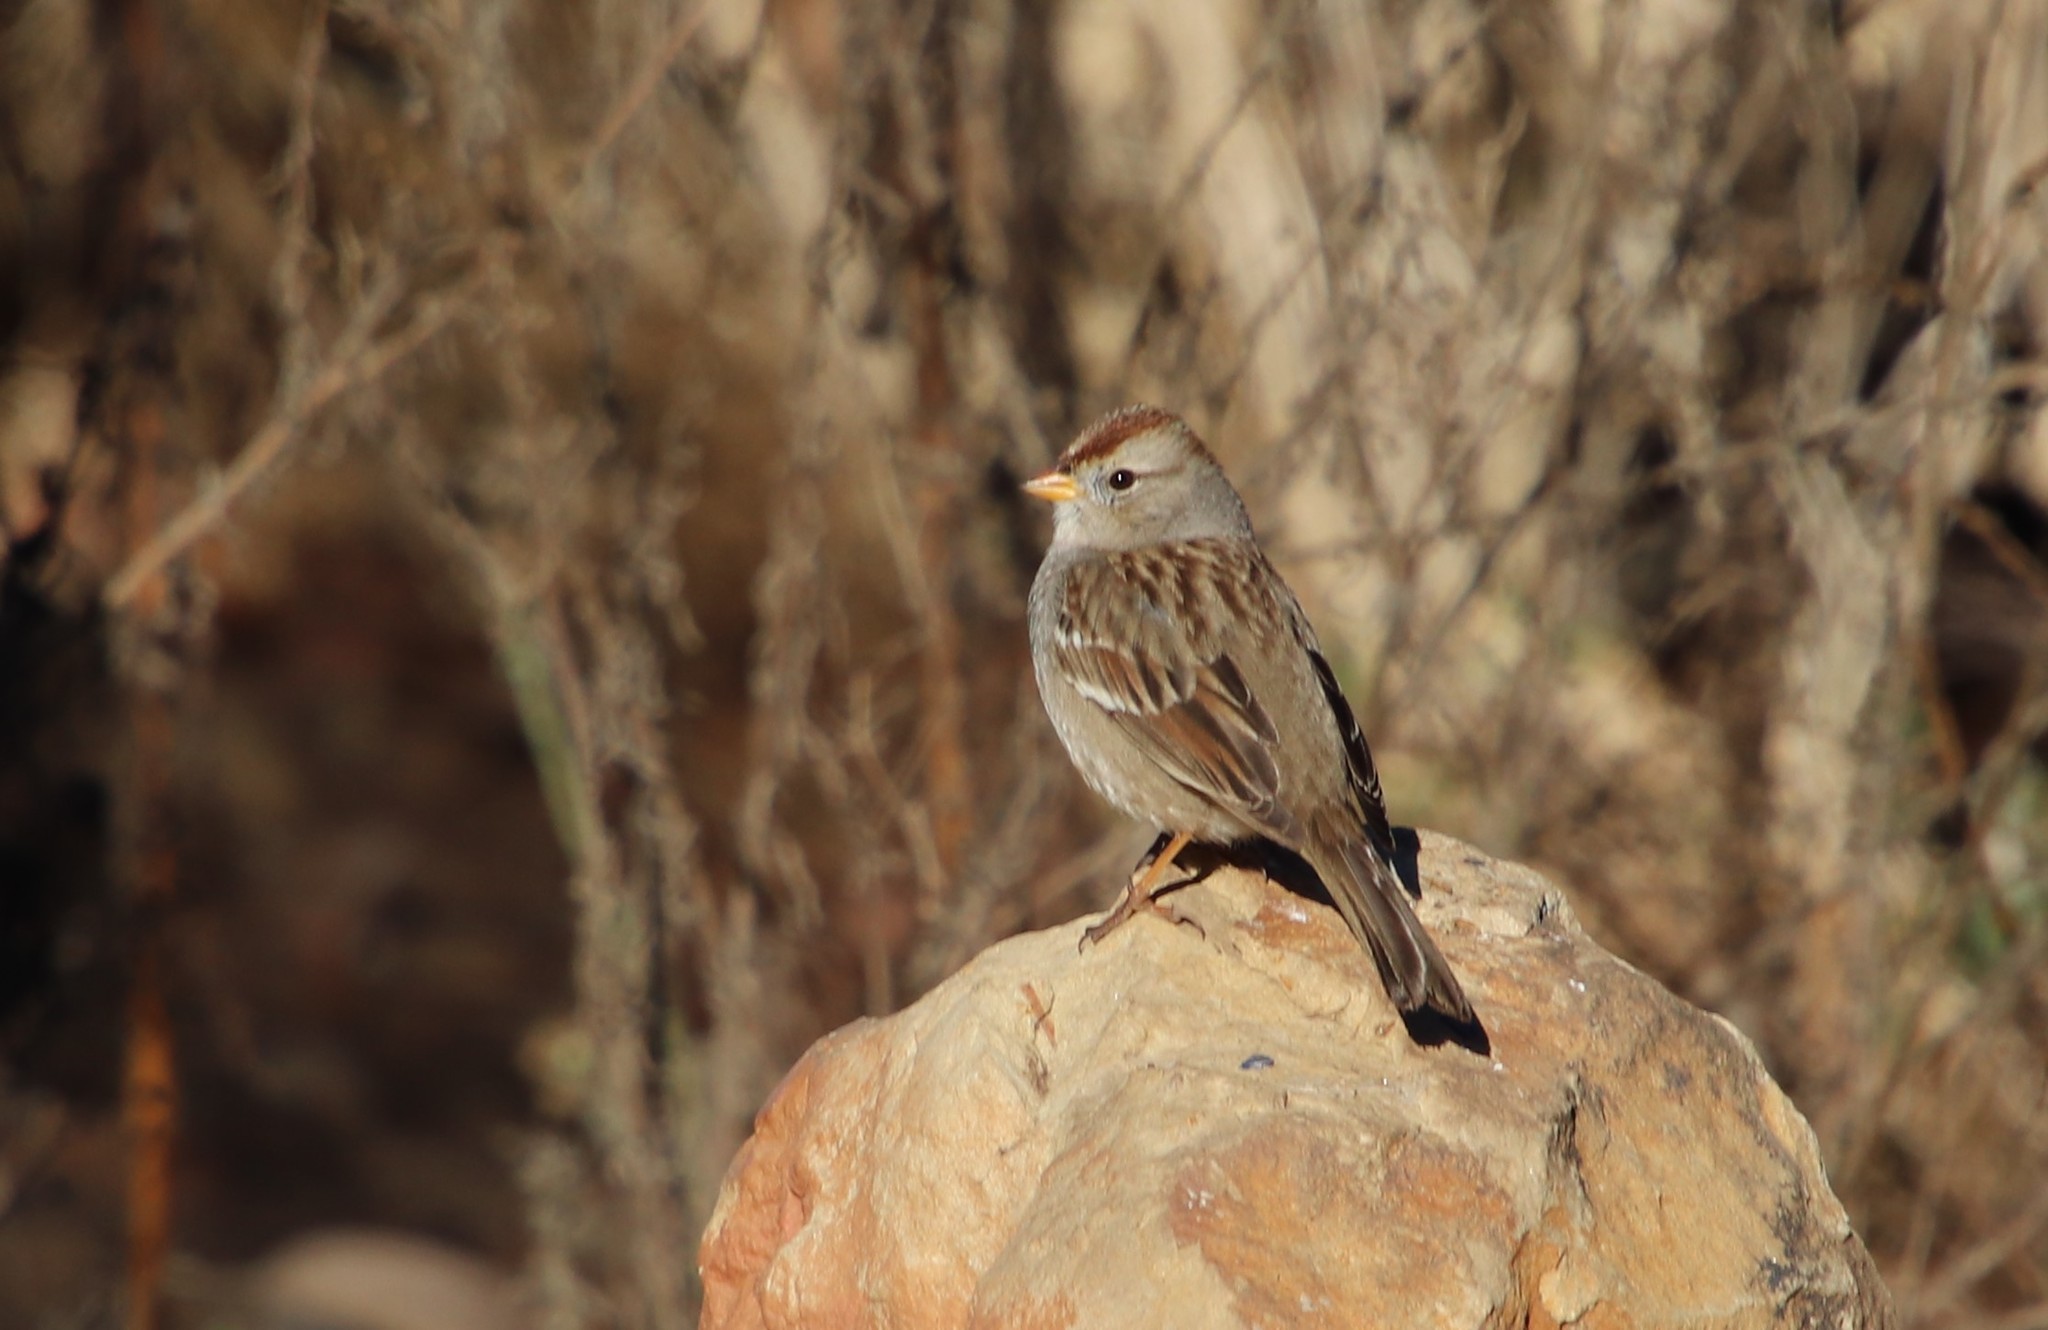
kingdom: Animalia
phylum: Chordata
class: Aves
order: Passeriformes
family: Passerellidae
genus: Zonotrichia
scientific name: Zonotrichia leucophrys
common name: White-crowned sparrow
